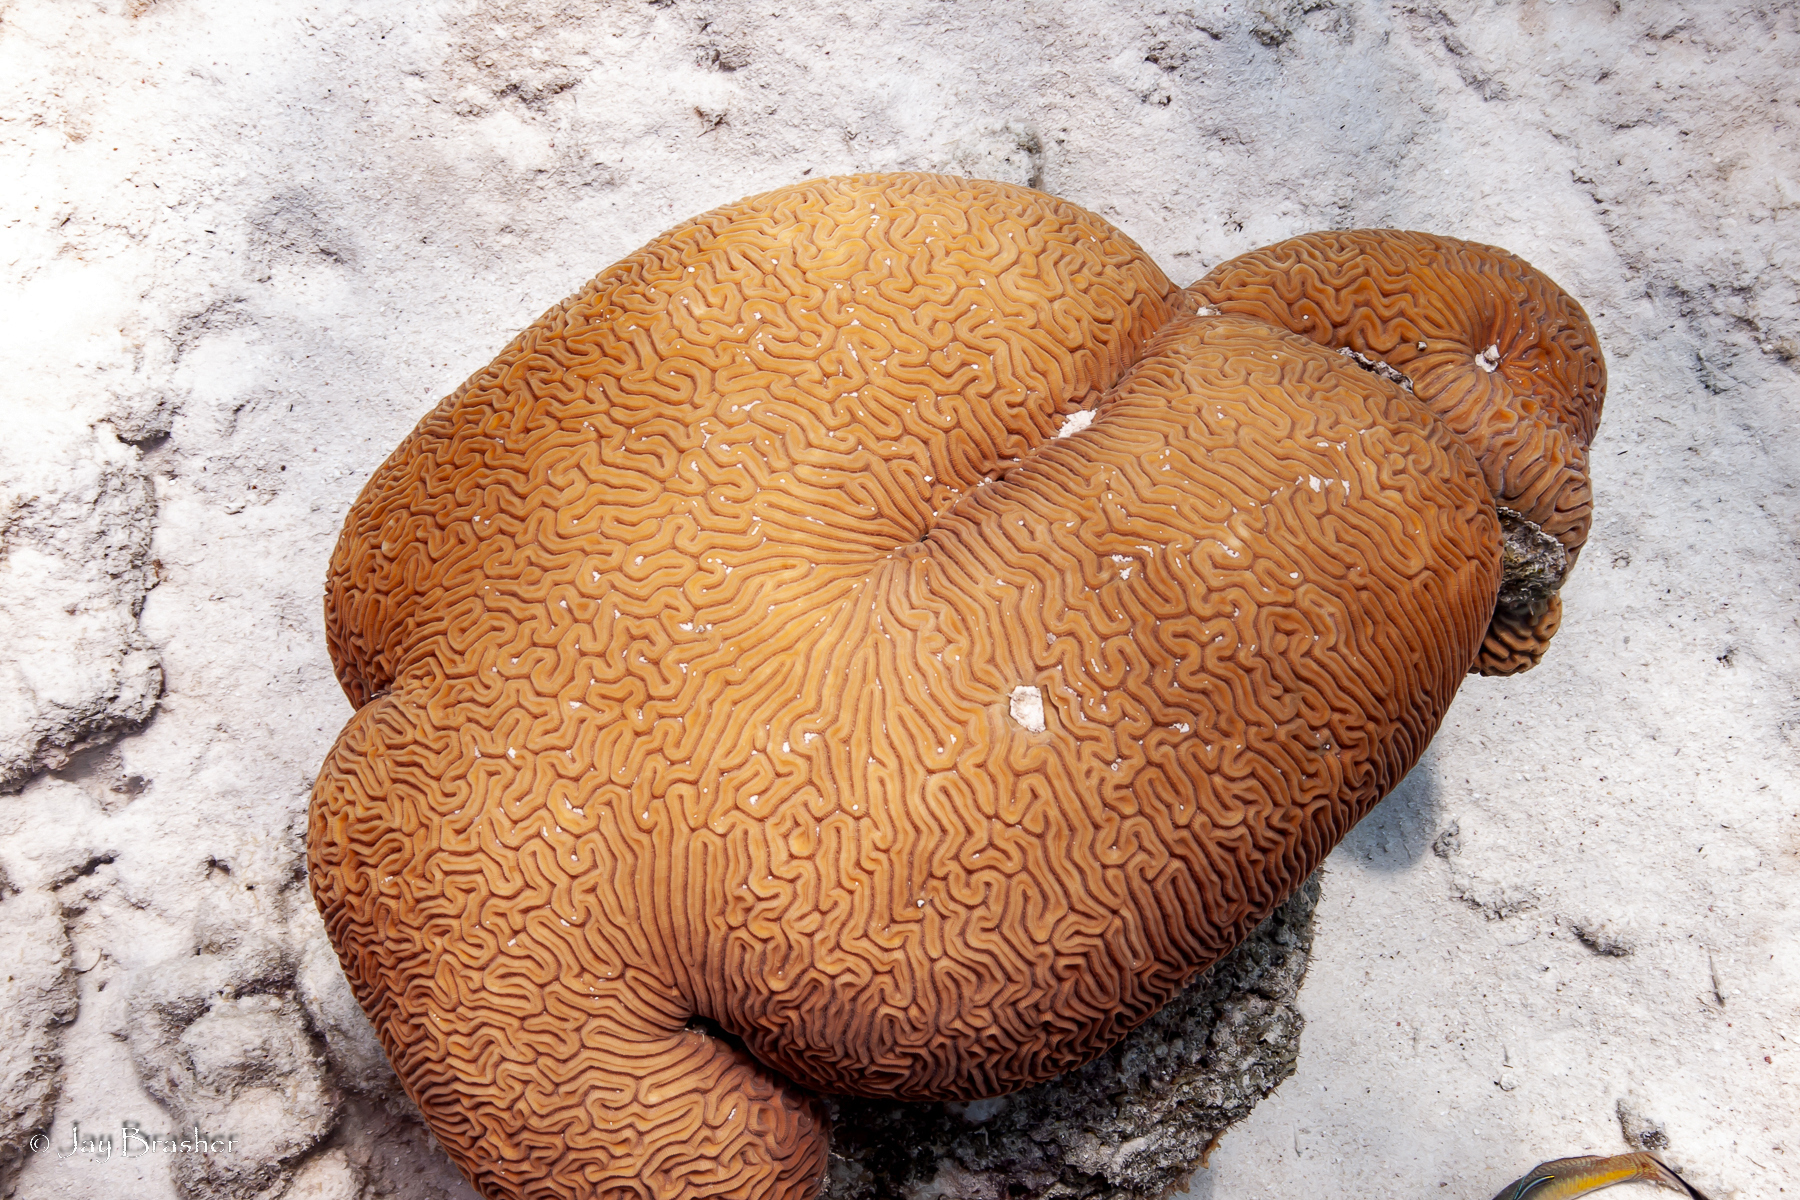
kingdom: Animalia
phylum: Cnidaria
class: Anthozoa
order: Scleractinia
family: Faviidae
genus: Diploria
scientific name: Diploria labyrinthiformis
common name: Grooved brain coral
